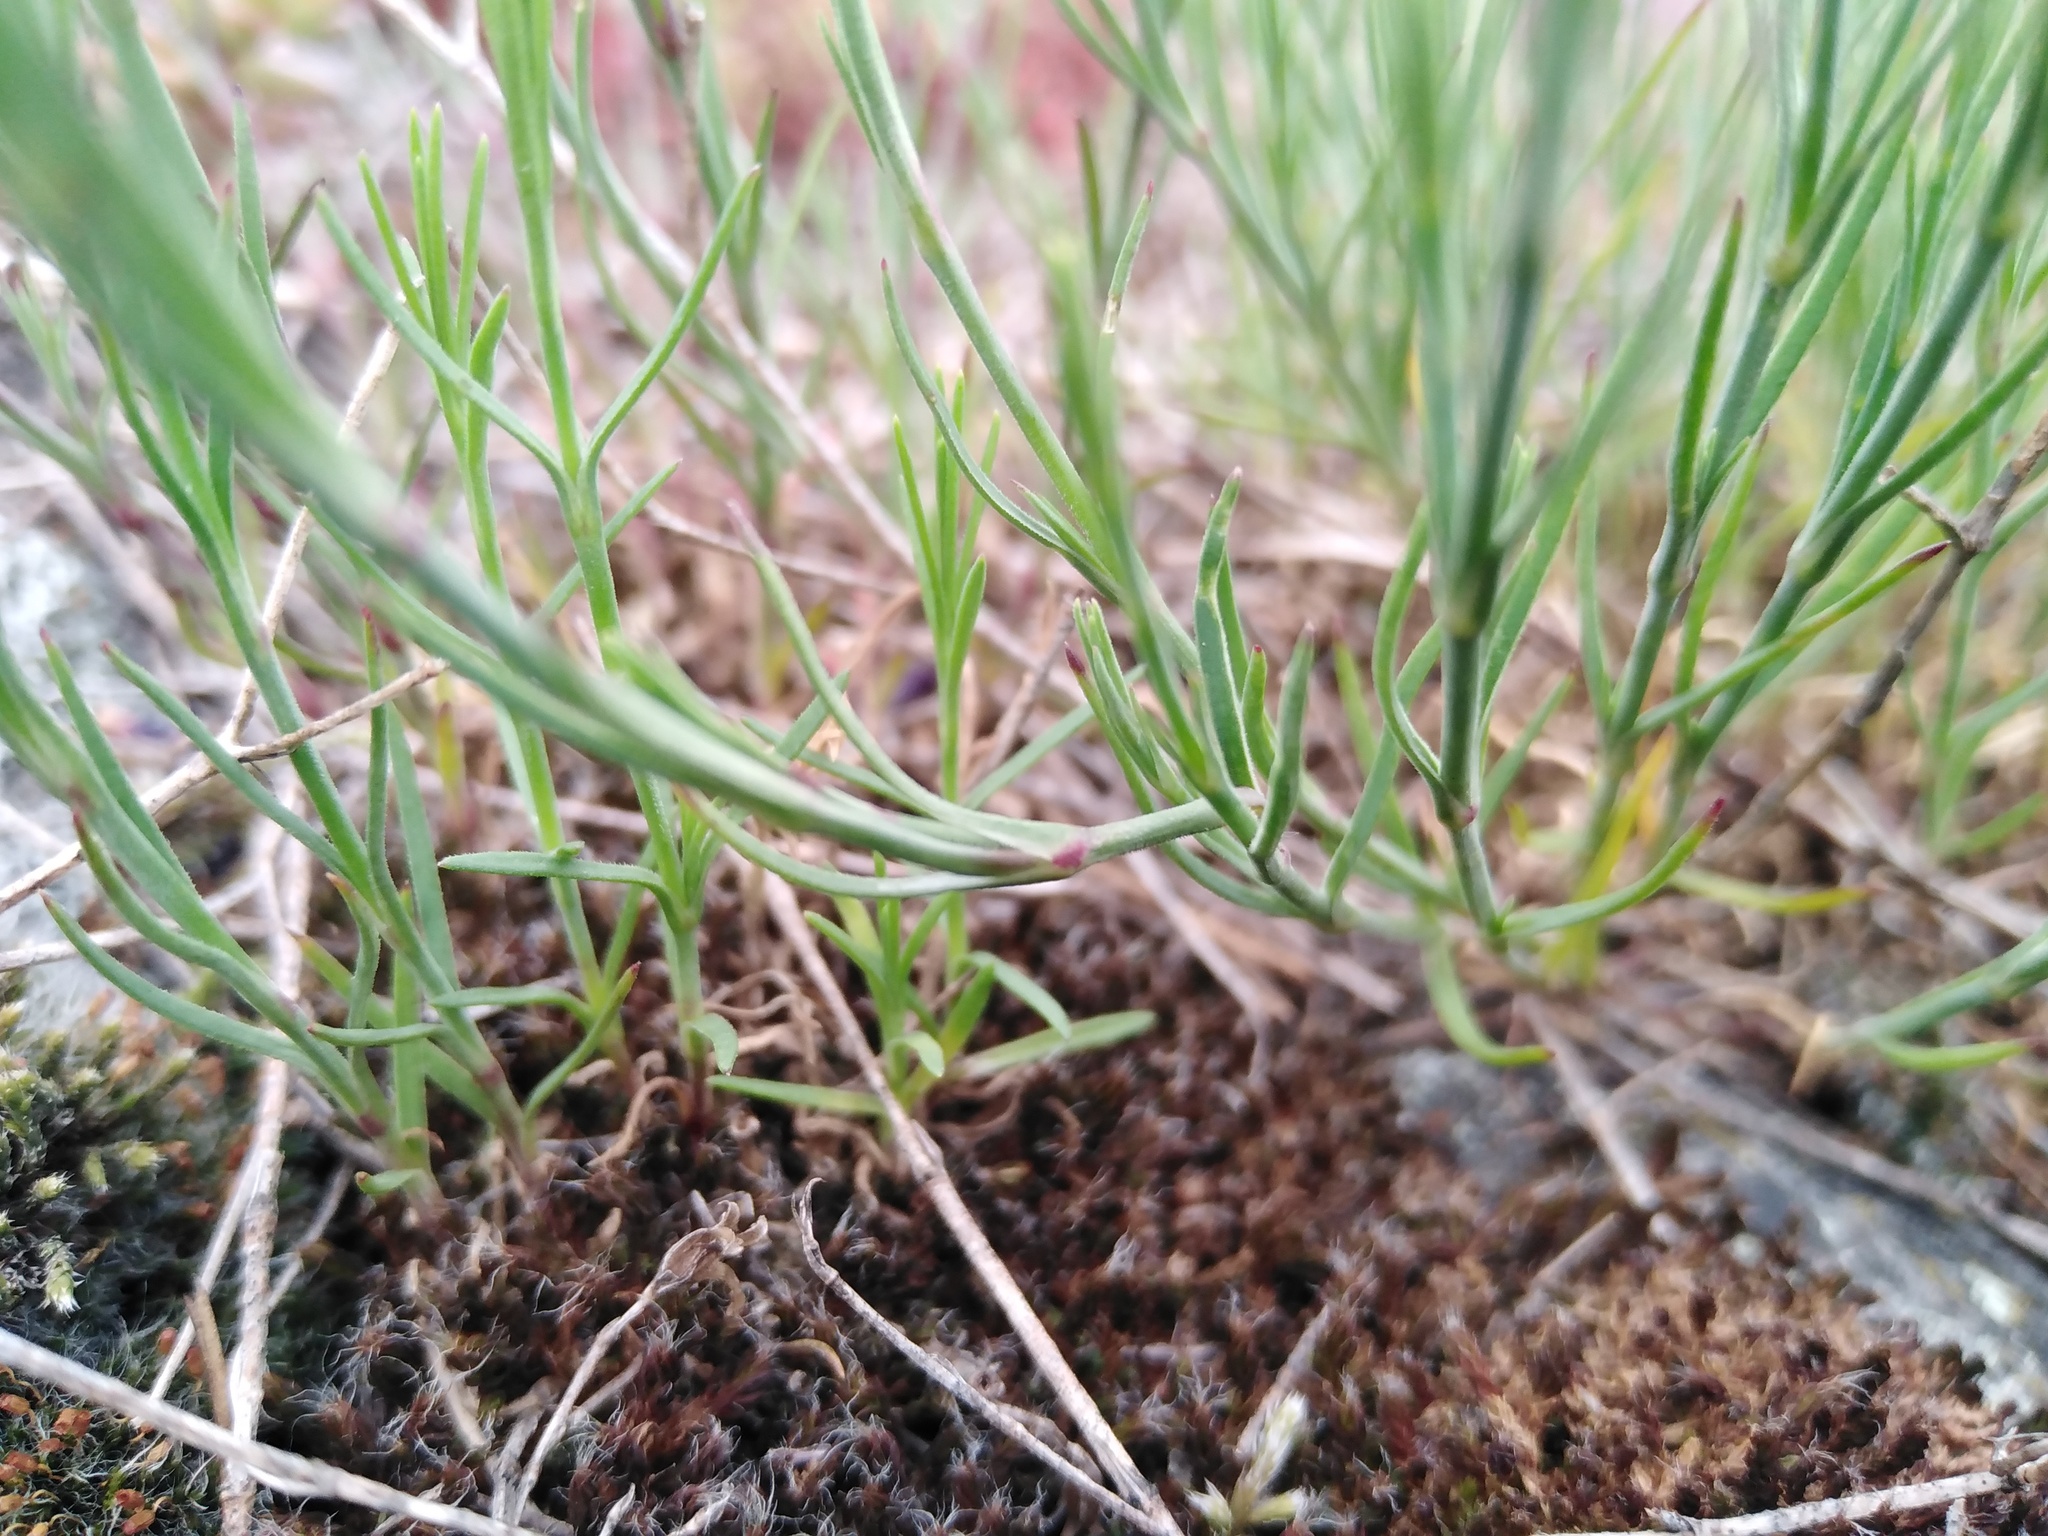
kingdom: Plantae
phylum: Tracheophyta
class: Magnoliopsida
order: Caryophyllales
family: Caryophyllaceae
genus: Petrorhagia
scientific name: Petrorhagia saxifraga
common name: Tunicflower
